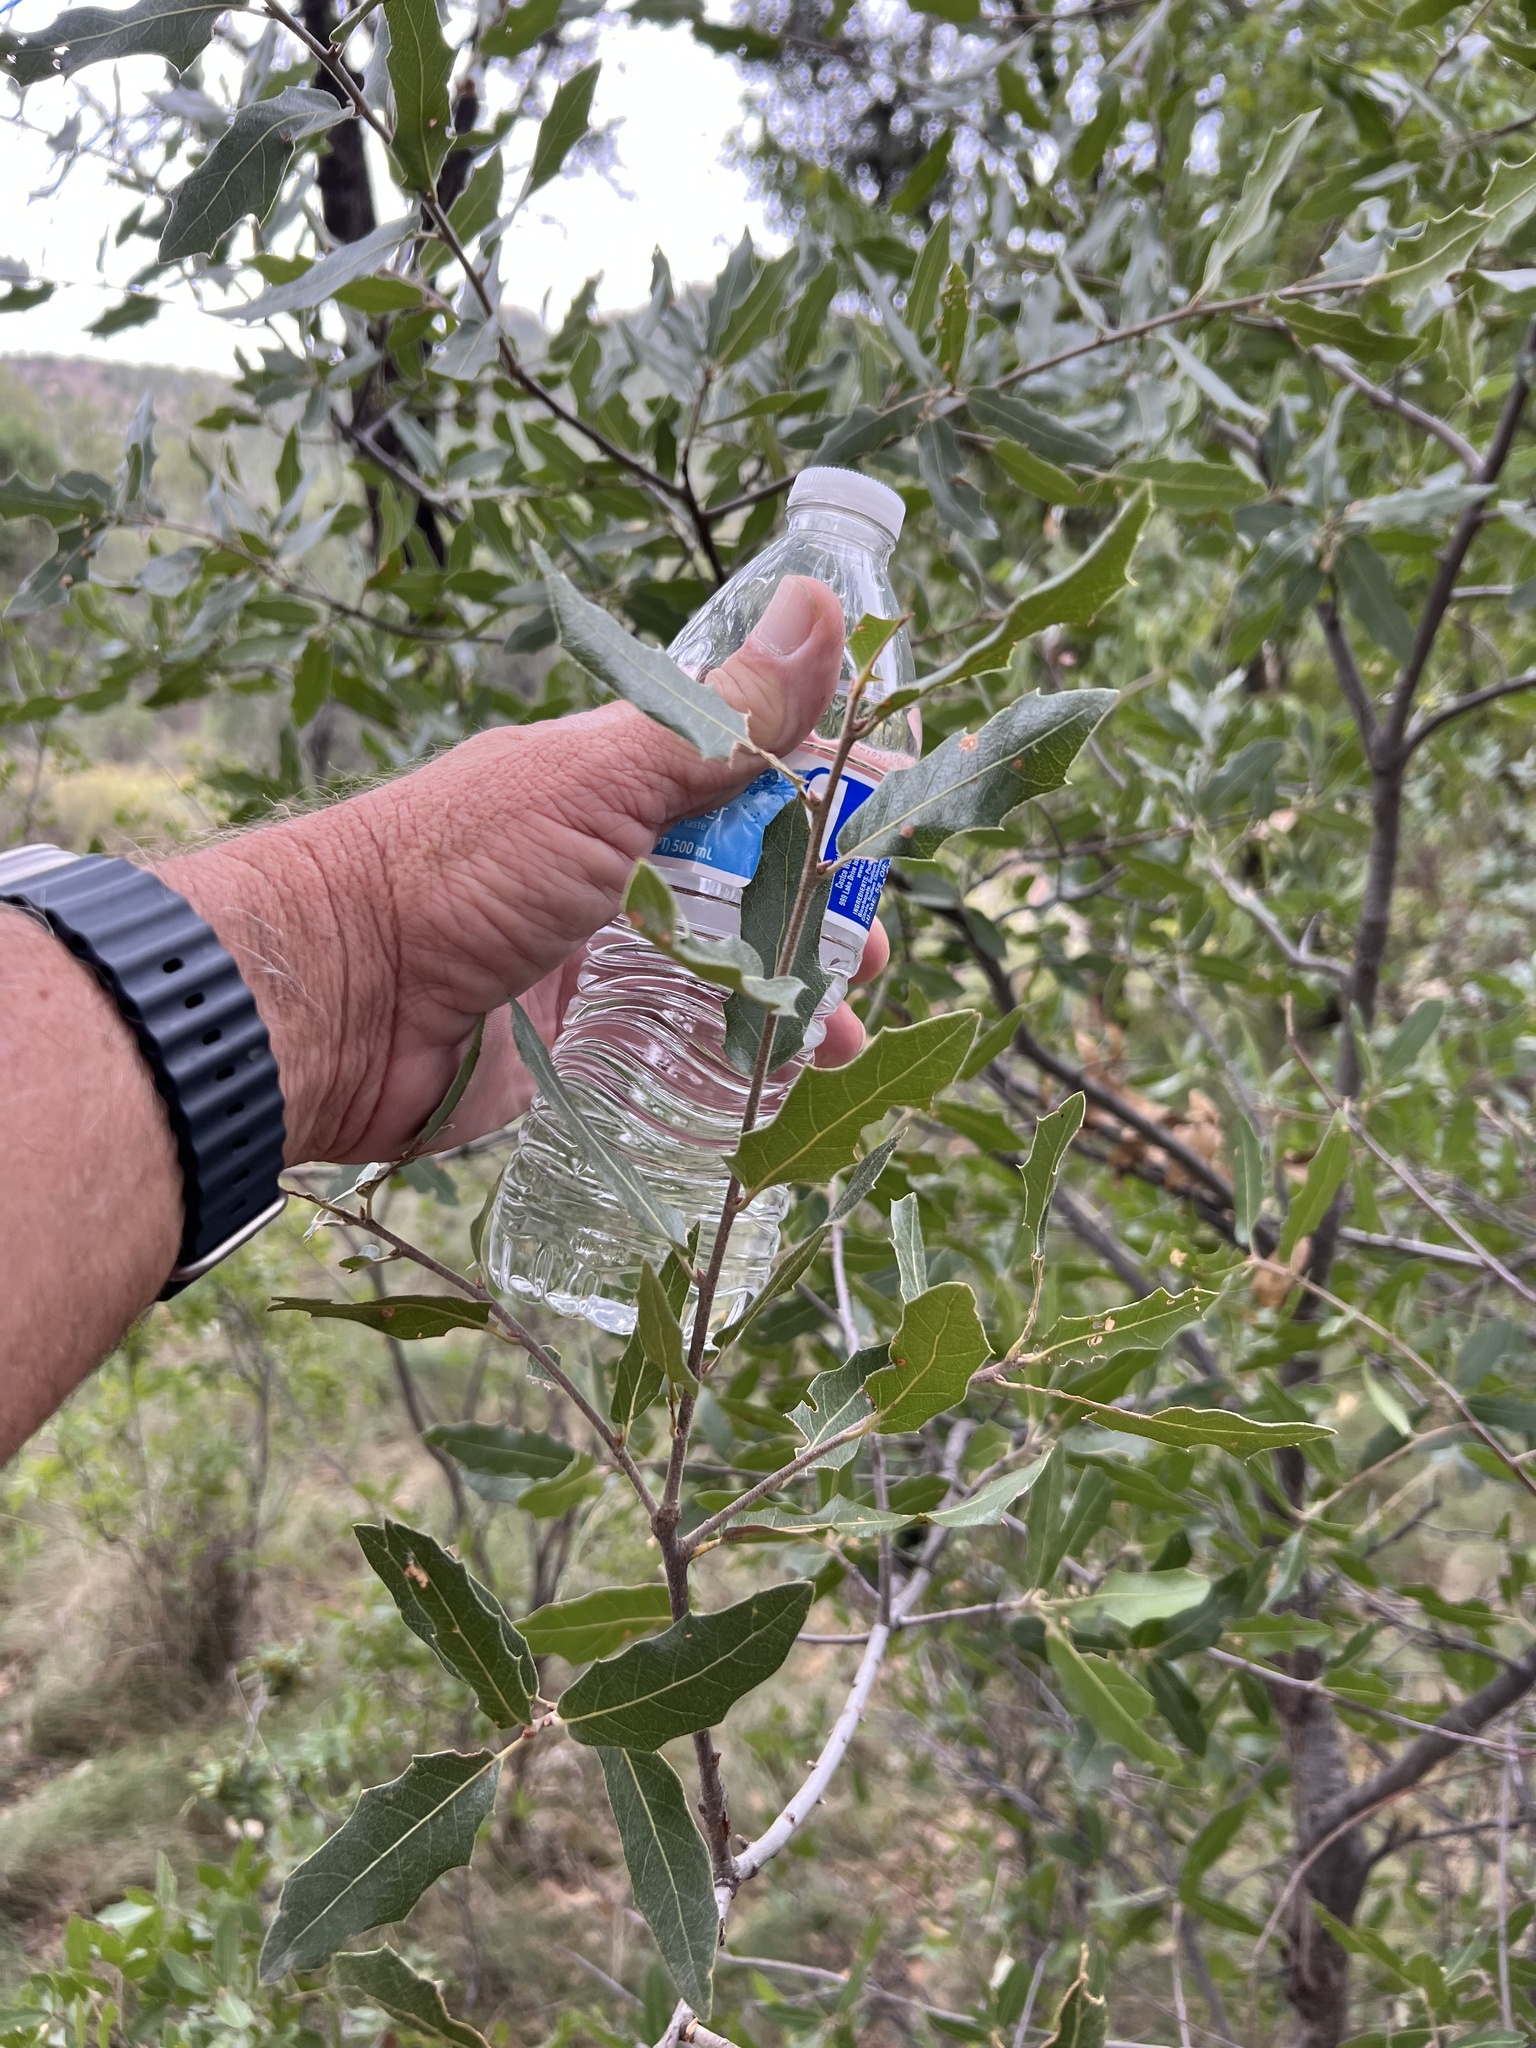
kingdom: Plantae
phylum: Tracheophyta
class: Magnoliopsida
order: Fagales
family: Fagaceae
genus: Quercus
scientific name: Quercus emoryi
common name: Emory oak
